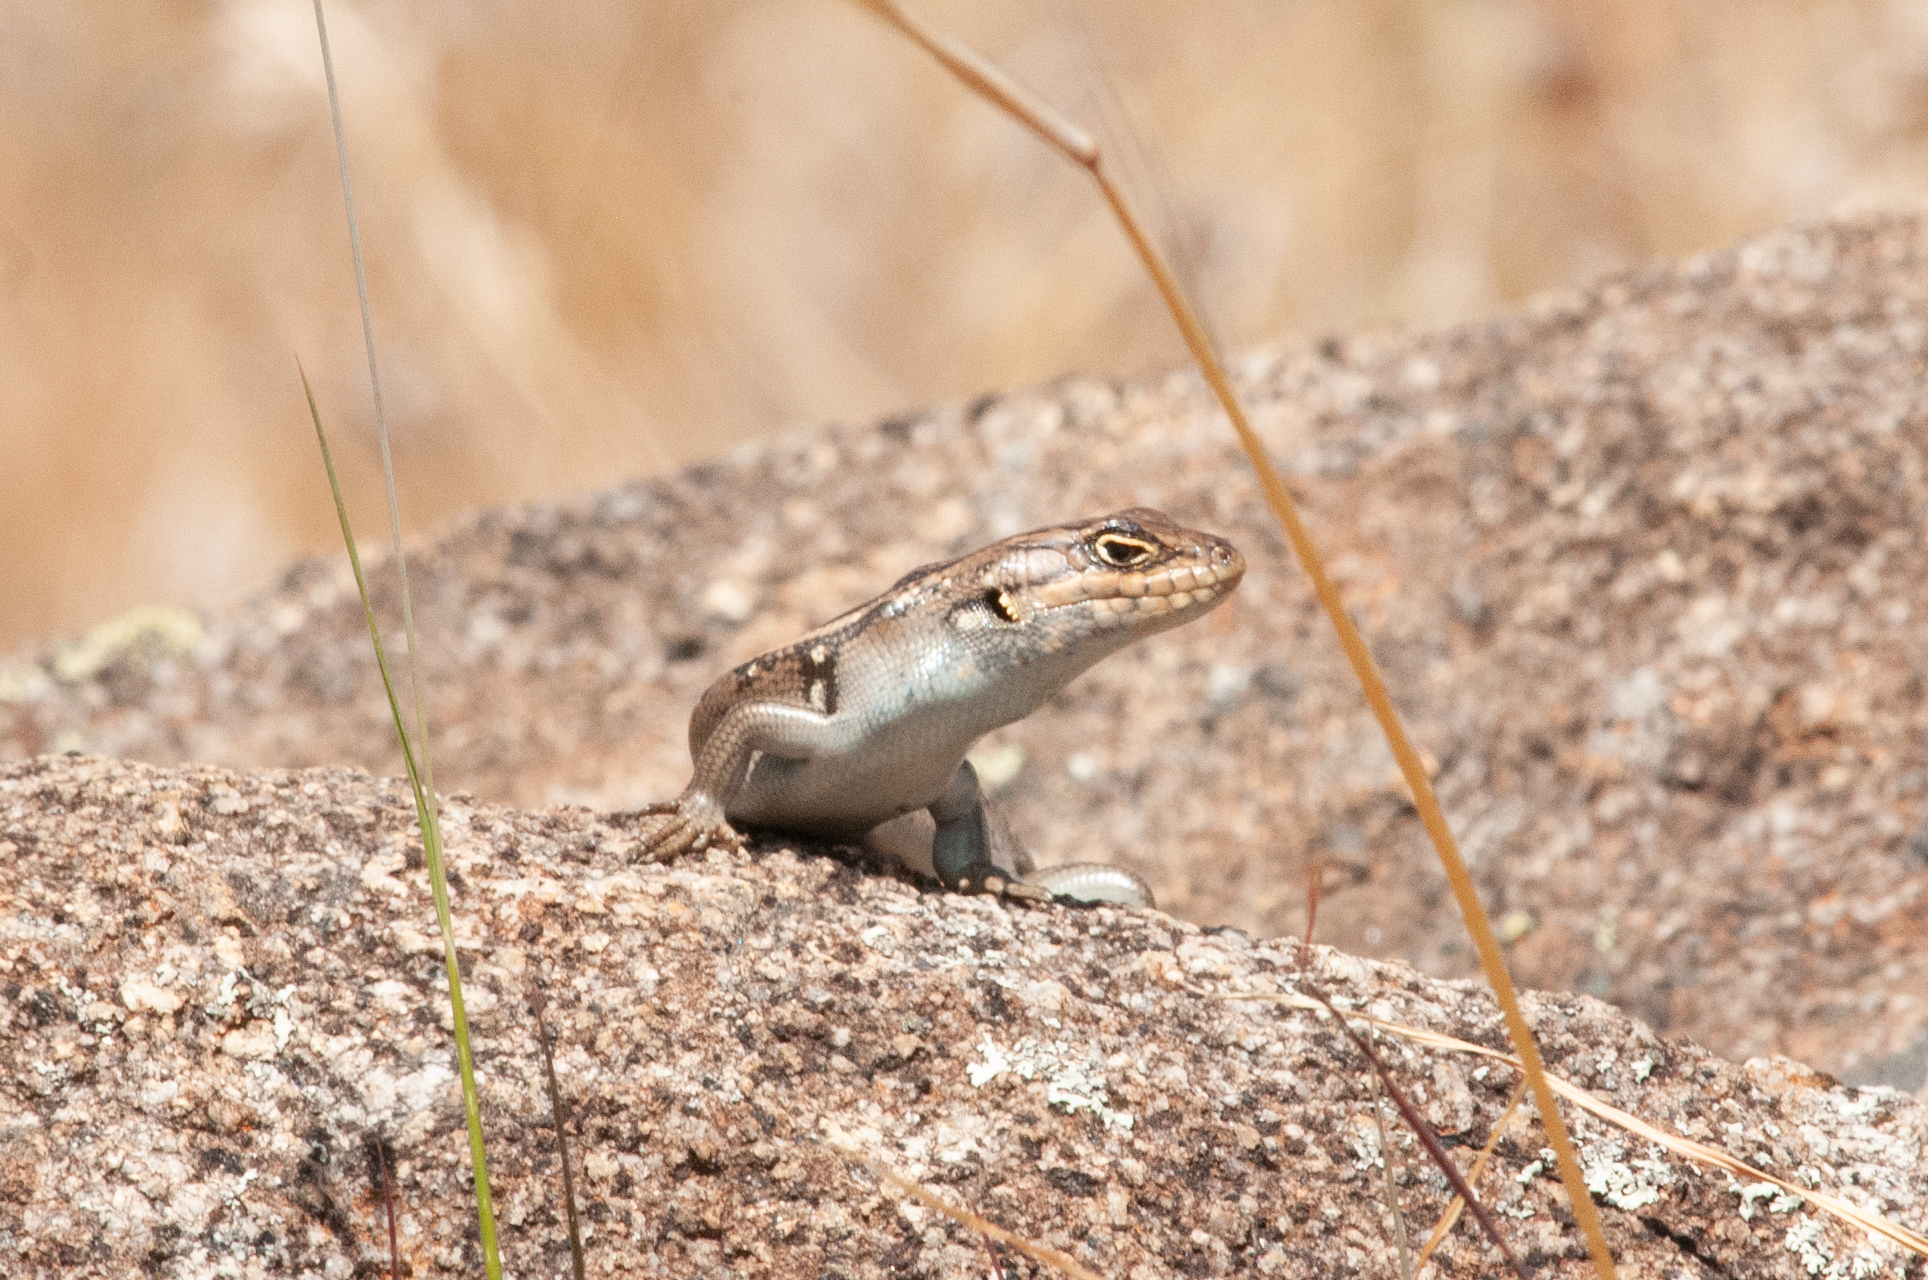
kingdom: Animalia
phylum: Chordata
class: Squamata
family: Scincidae
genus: Liopholis
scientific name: Liopholis whitii
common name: White's rock-skink
